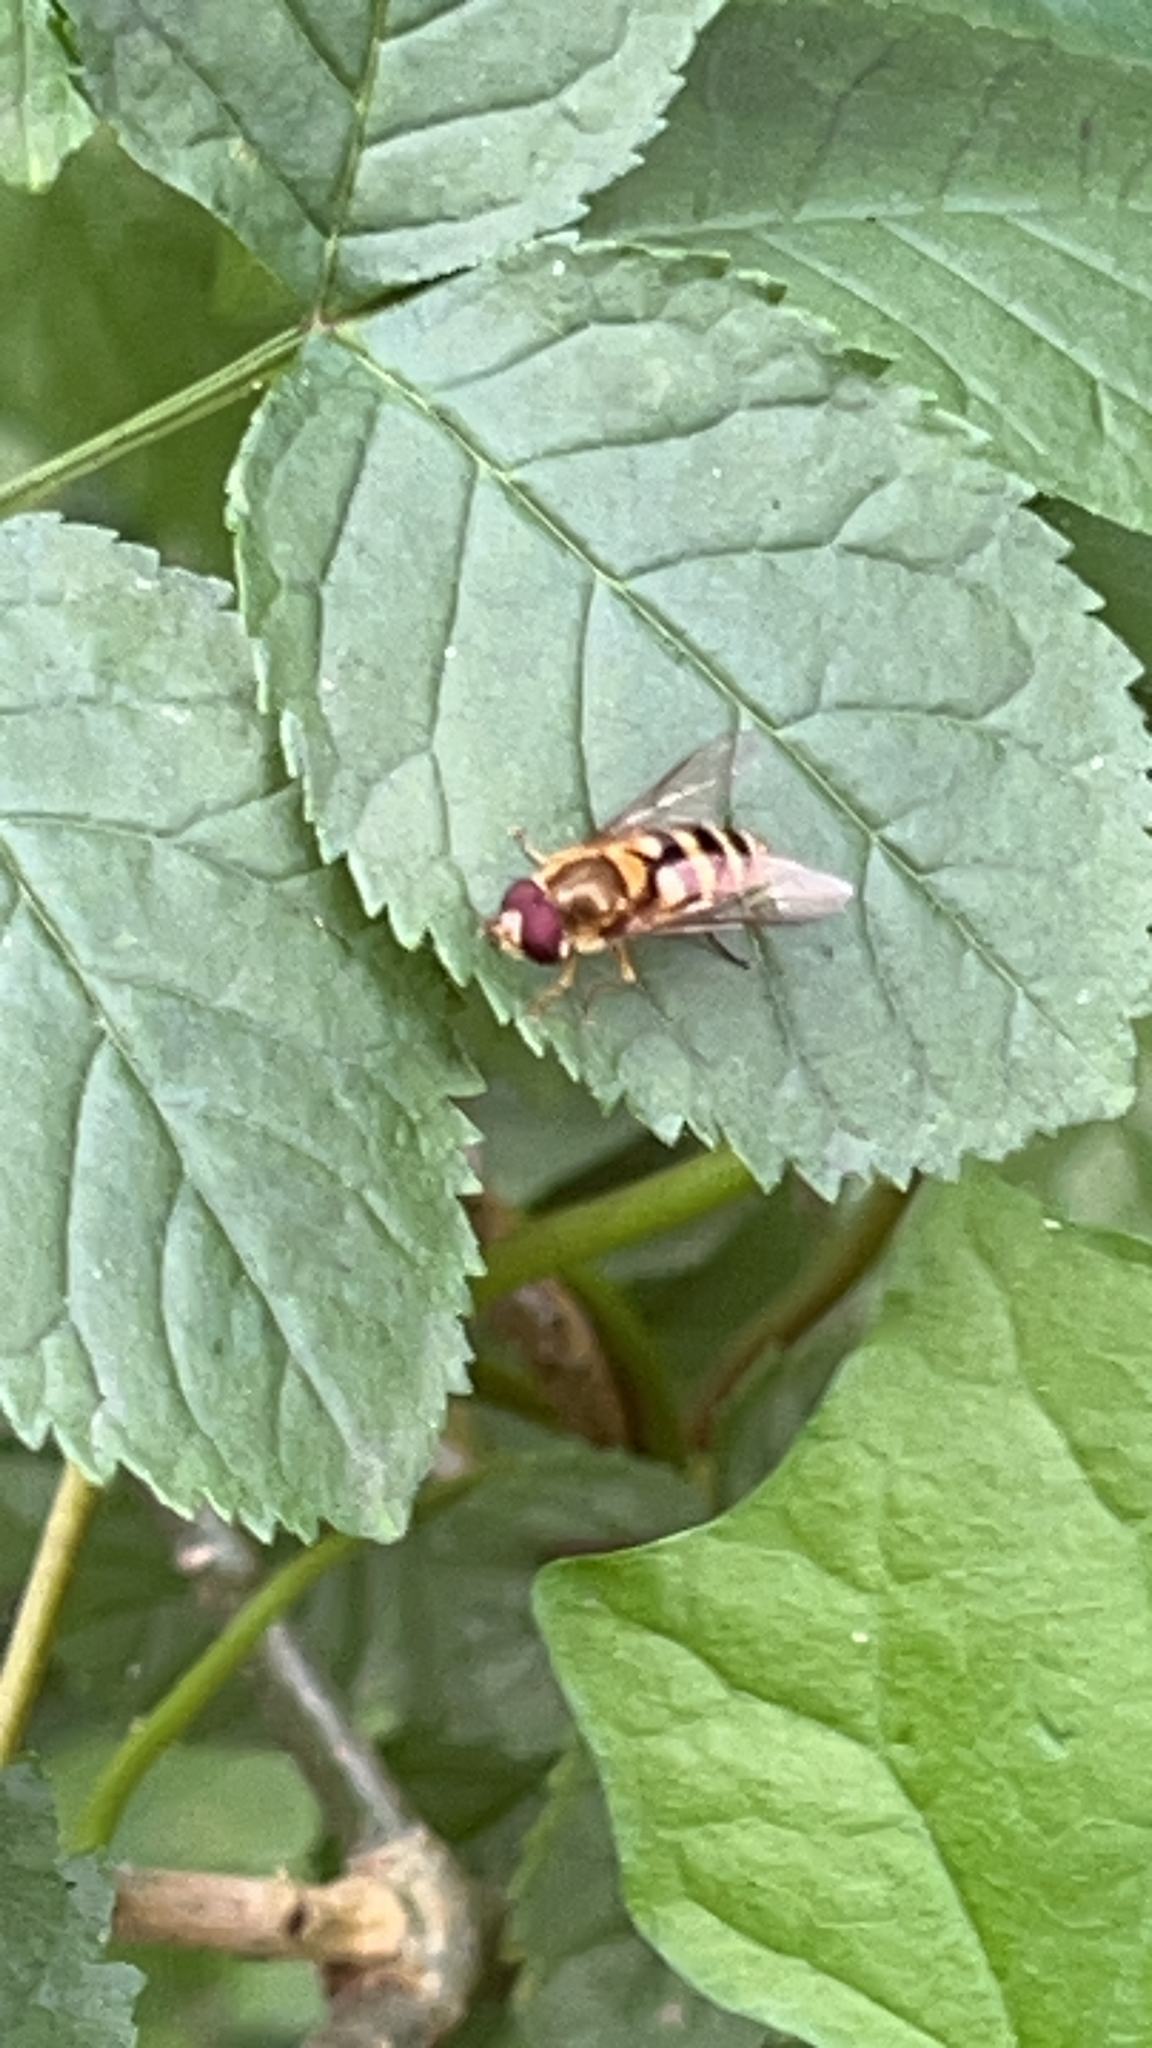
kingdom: Animalia
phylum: Arthropoda
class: Insecta
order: Diptera
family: Syrphidae
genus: Syrphus
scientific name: Syrphus
